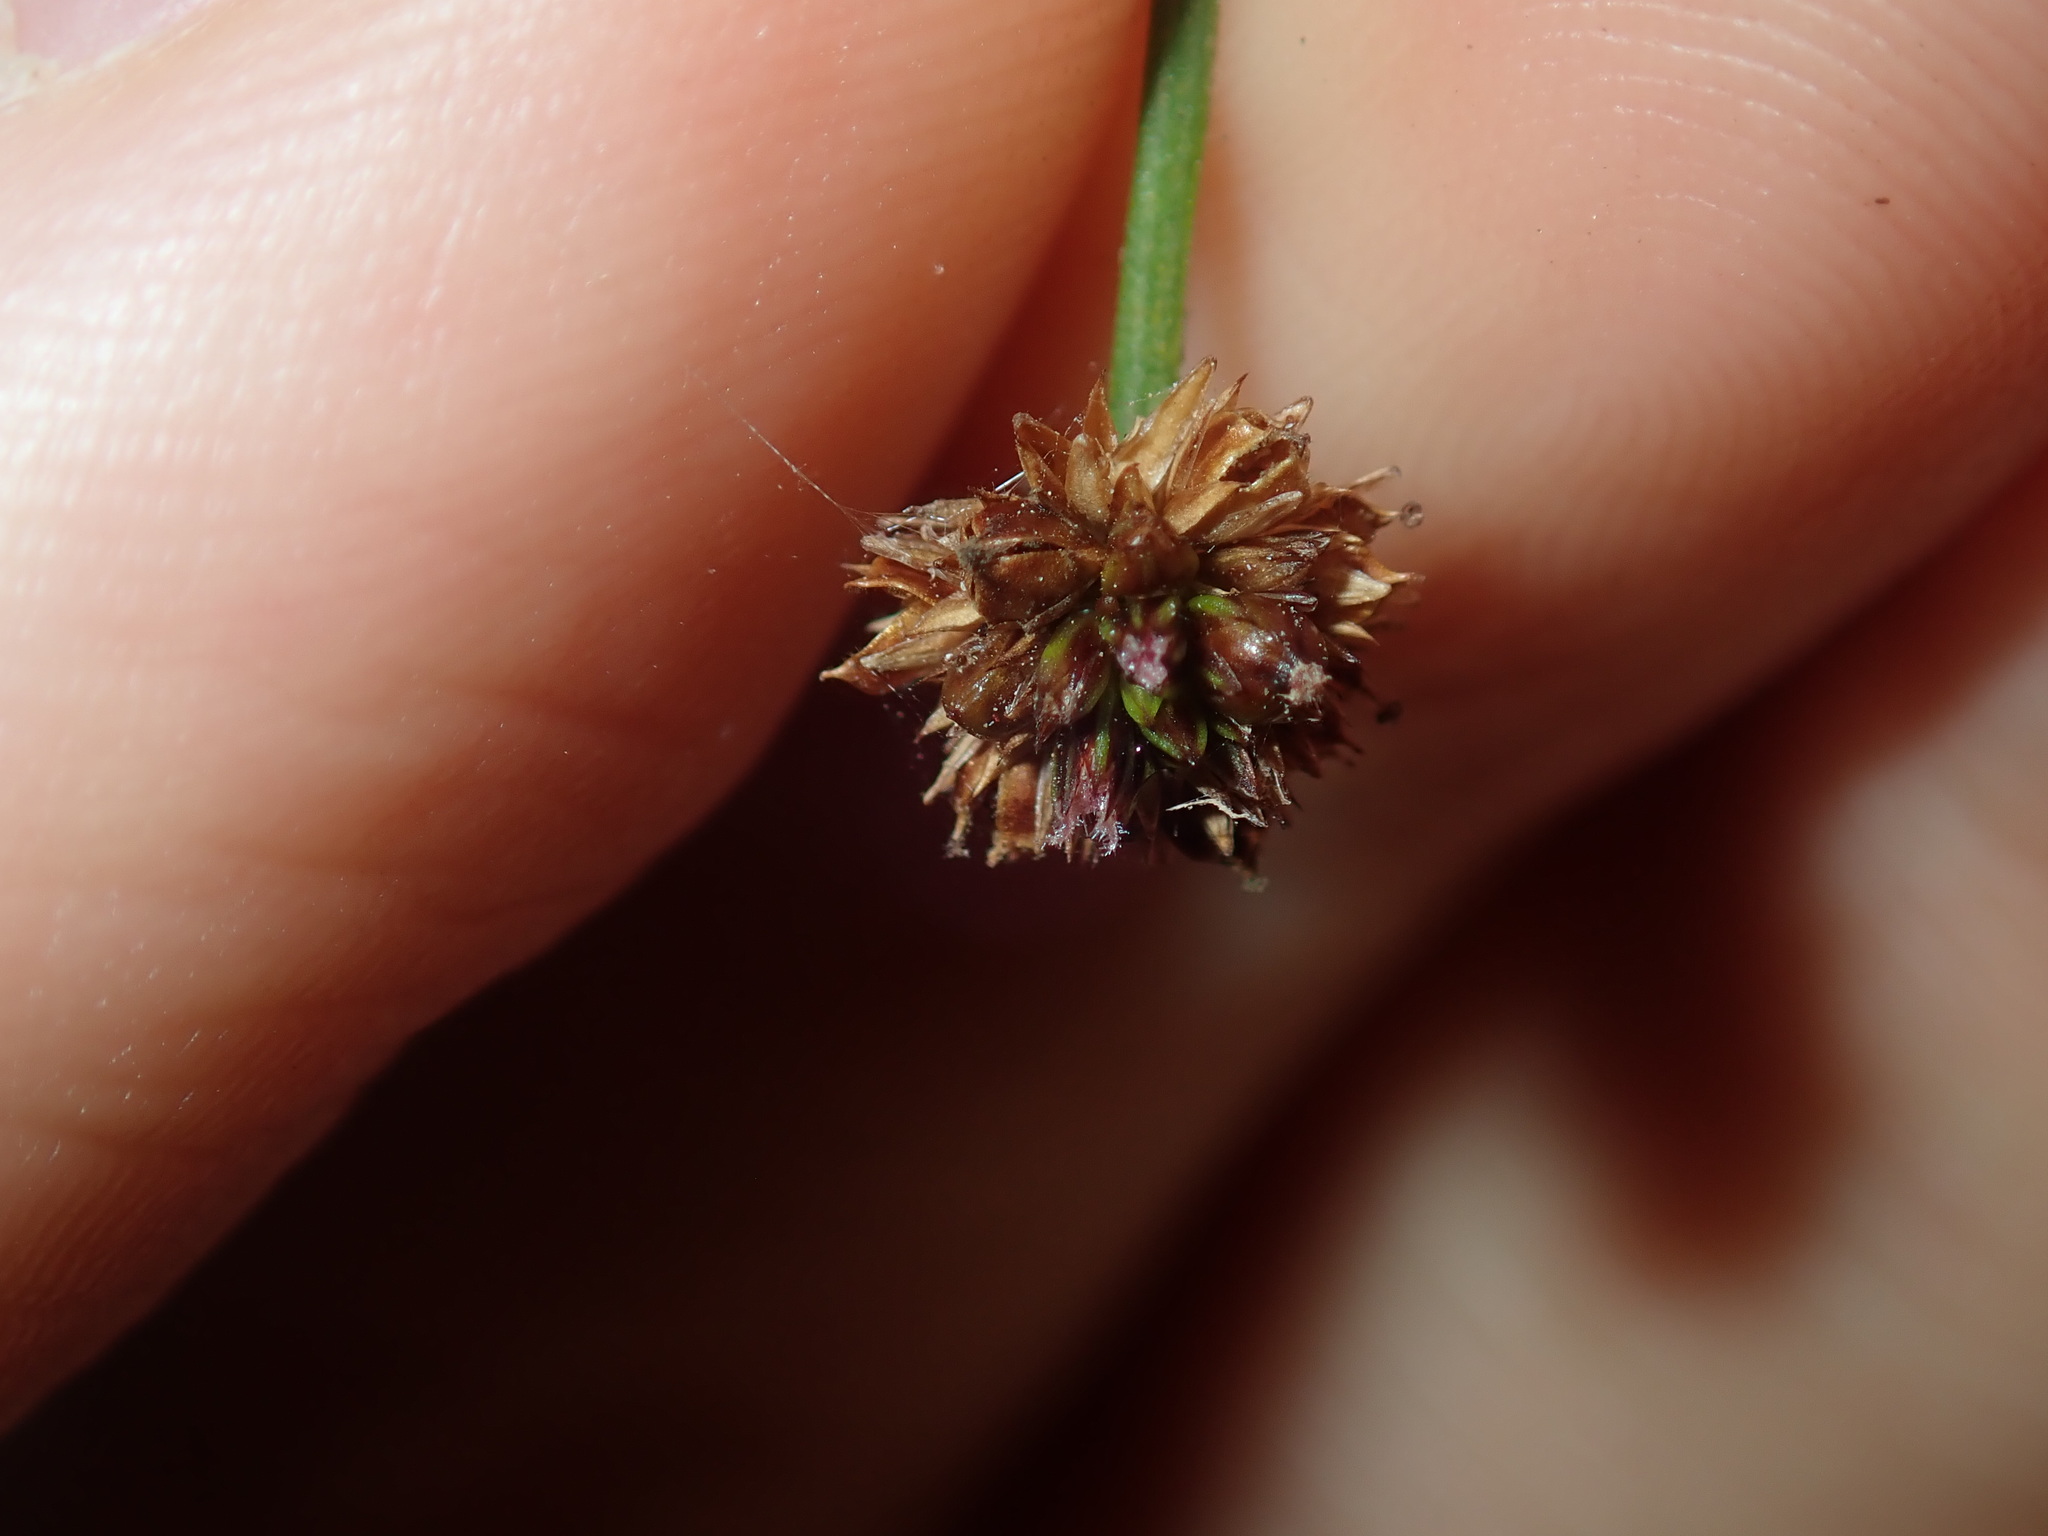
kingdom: Plantae
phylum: Tracheophyta
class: Liliopsida
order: Poales
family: Juncaceae
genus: Juncus
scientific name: Juncus planifolius
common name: Broadleaf rush
